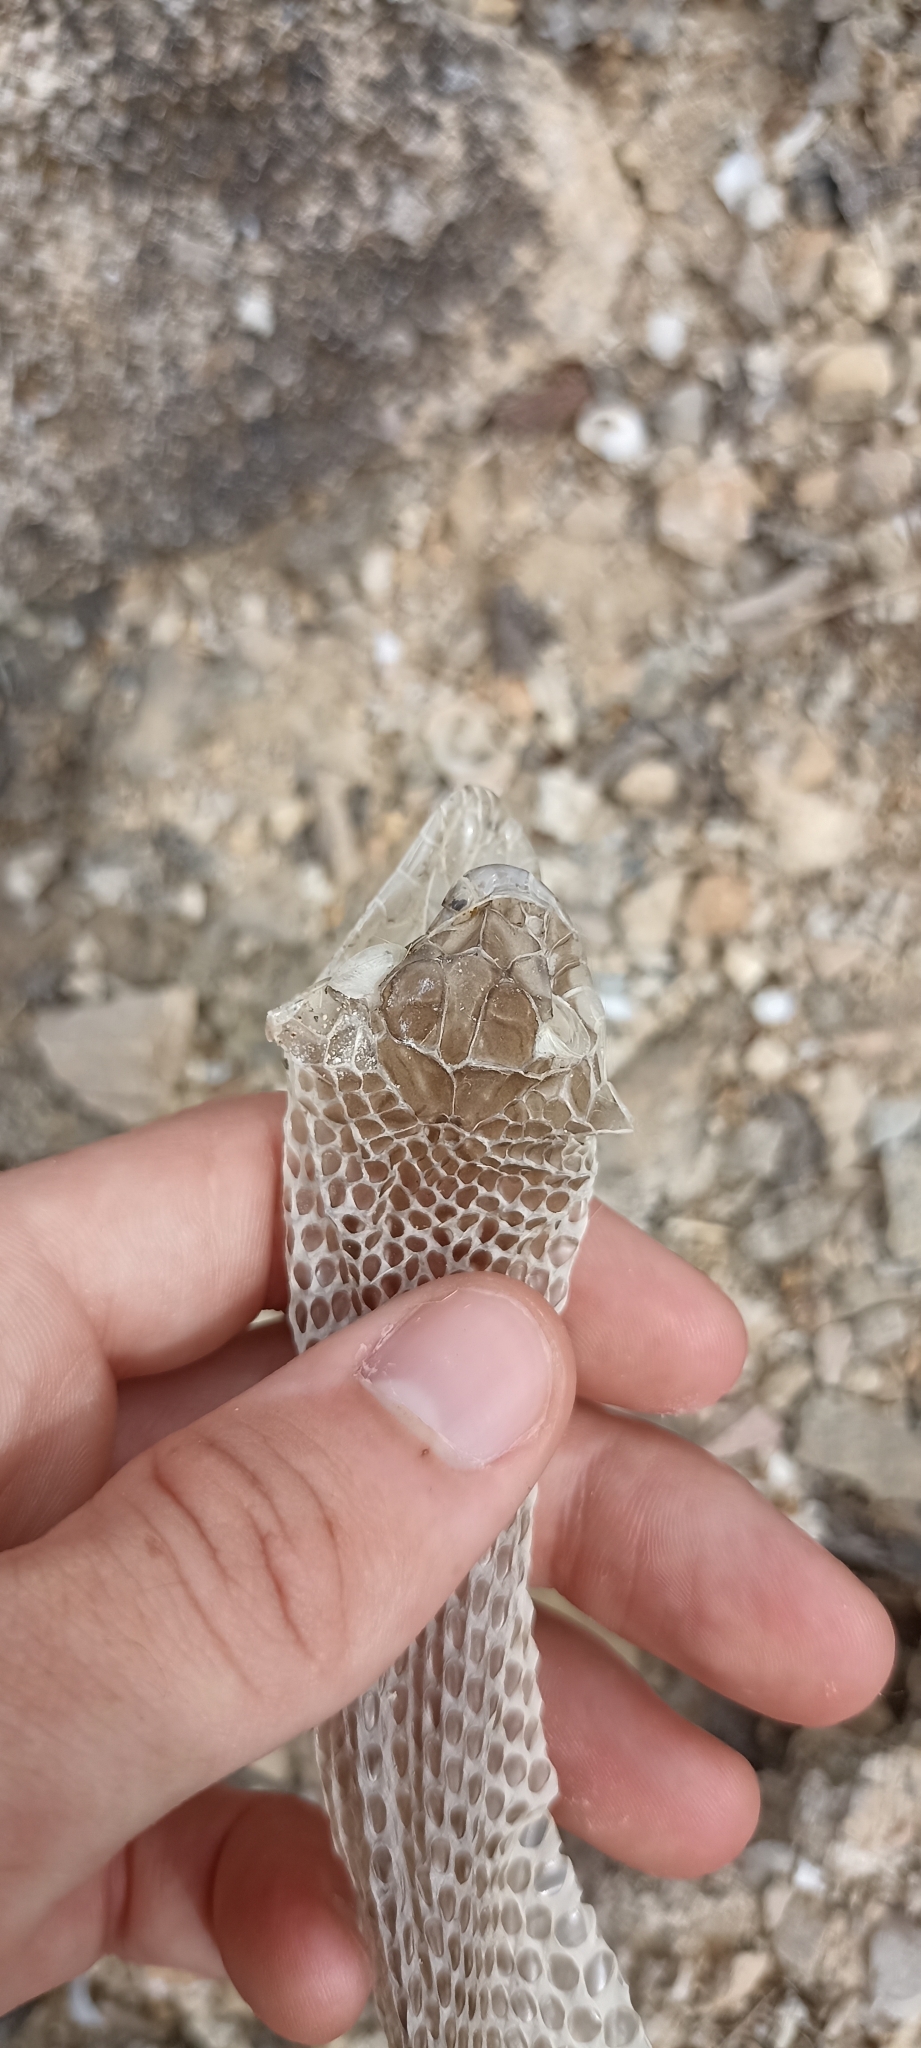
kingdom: Animalia
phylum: Chordata
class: Squamata
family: Psammophiidae
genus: Malpolon
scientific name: Malpolon monspessulanus
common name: Montpellier snake
